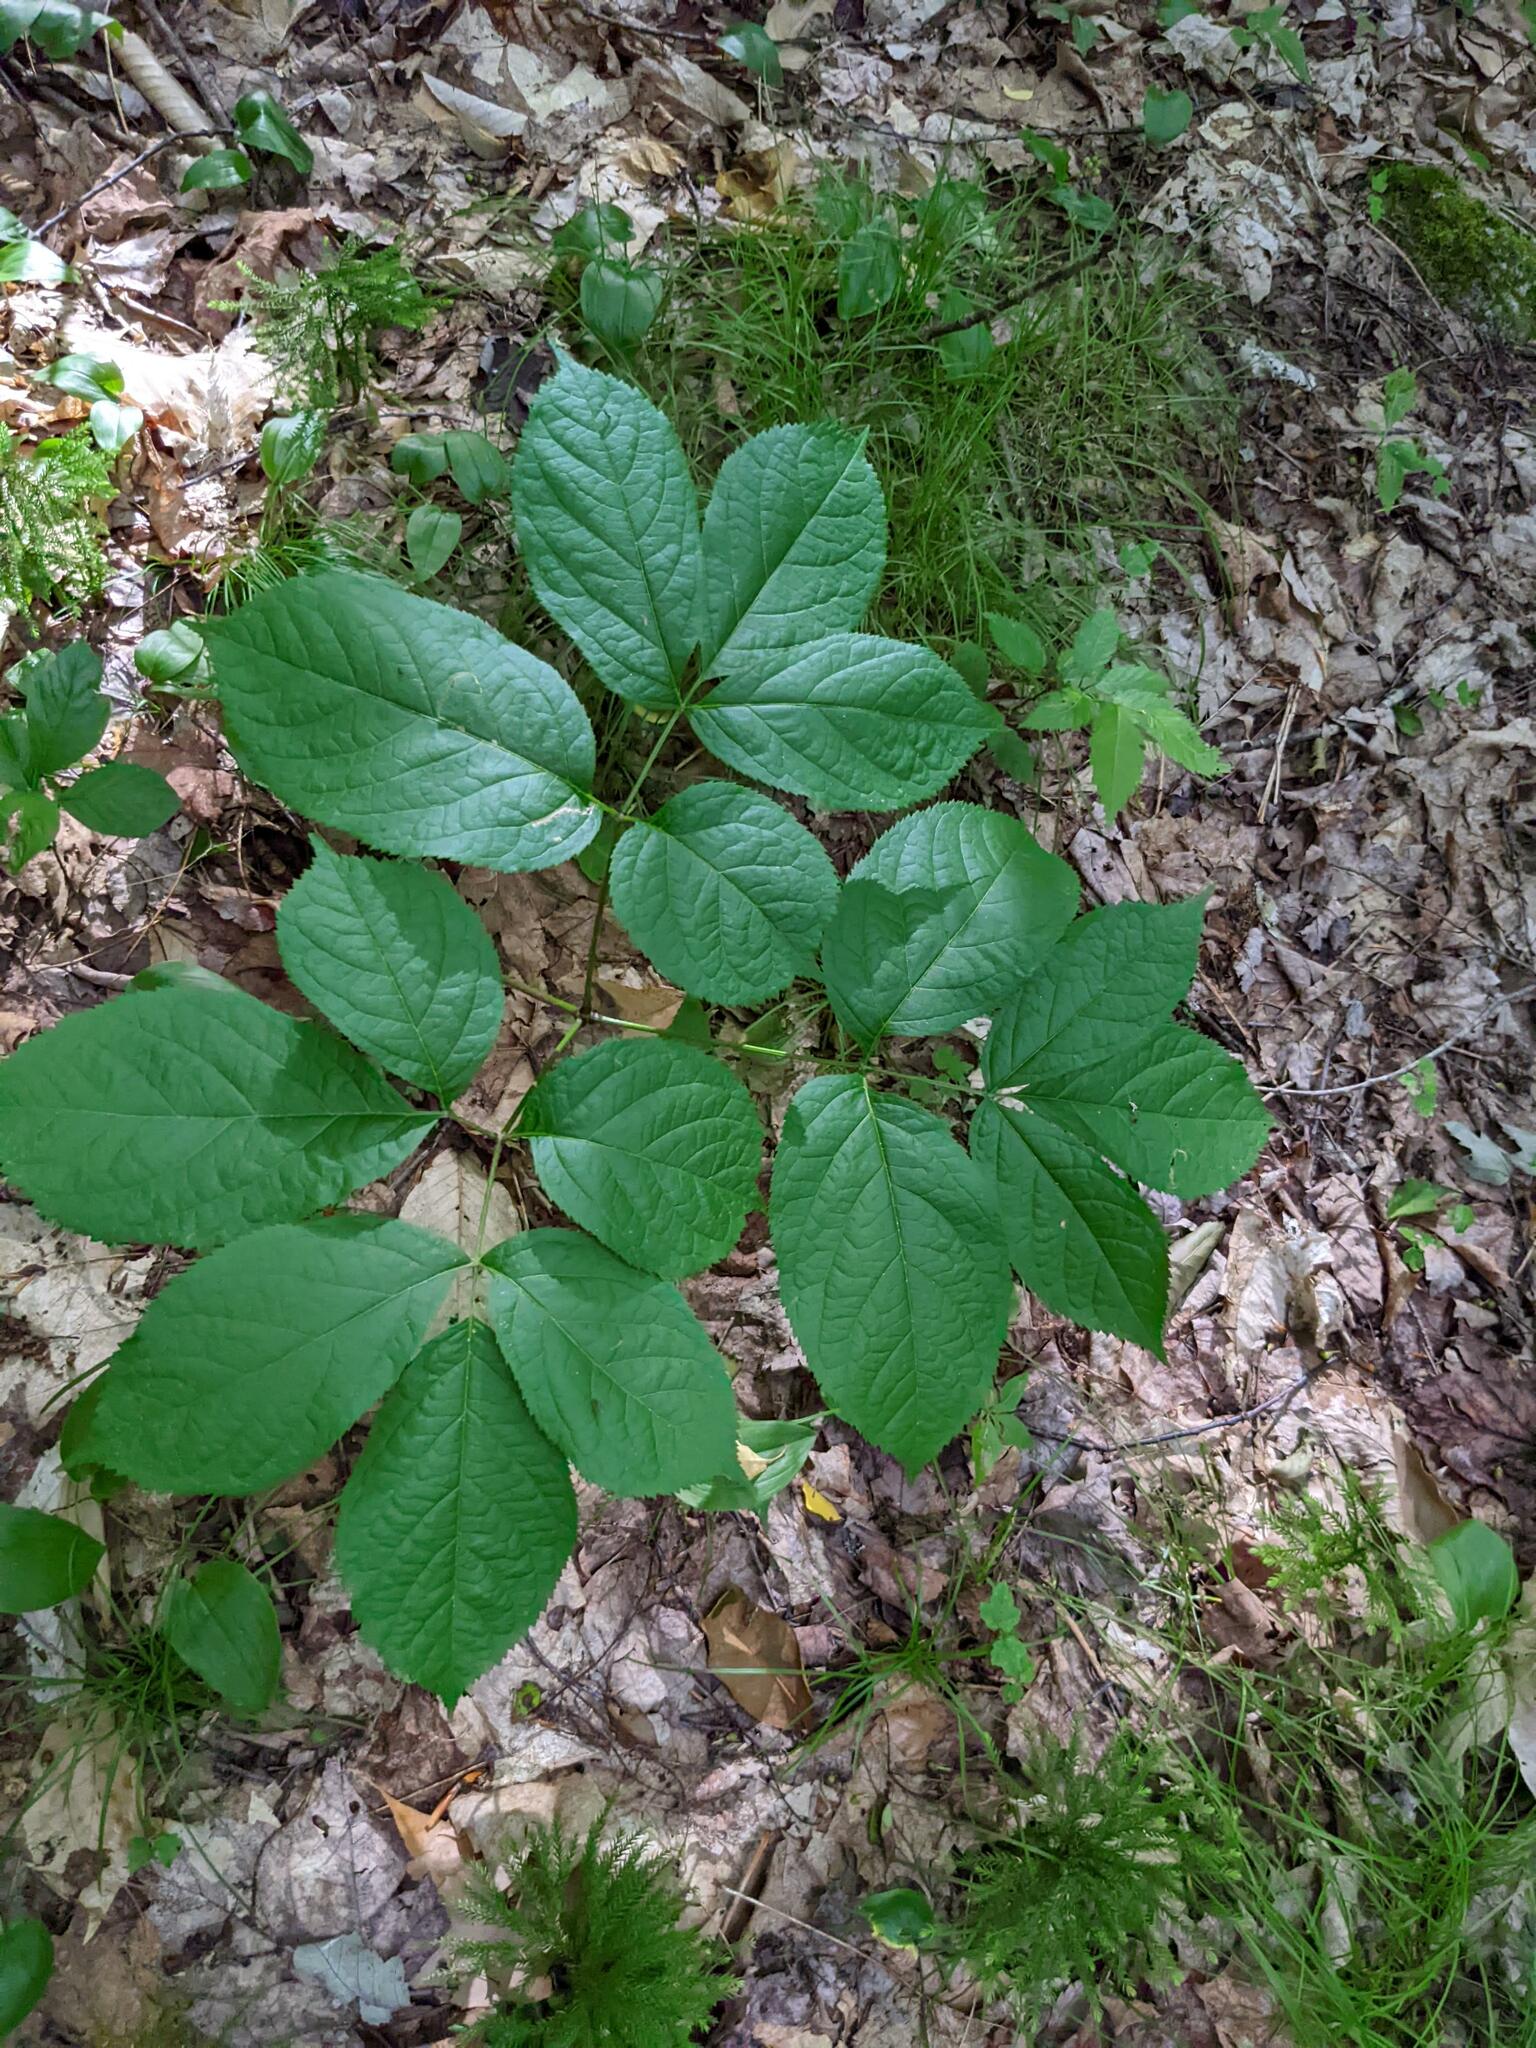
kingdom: Plantae
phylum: Tracheophyta
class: Magnoliopsida
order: Apiales
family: Araliaceae
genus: Aralia
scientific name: Aralia nudicaulis
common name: Wild sarsaparilla
